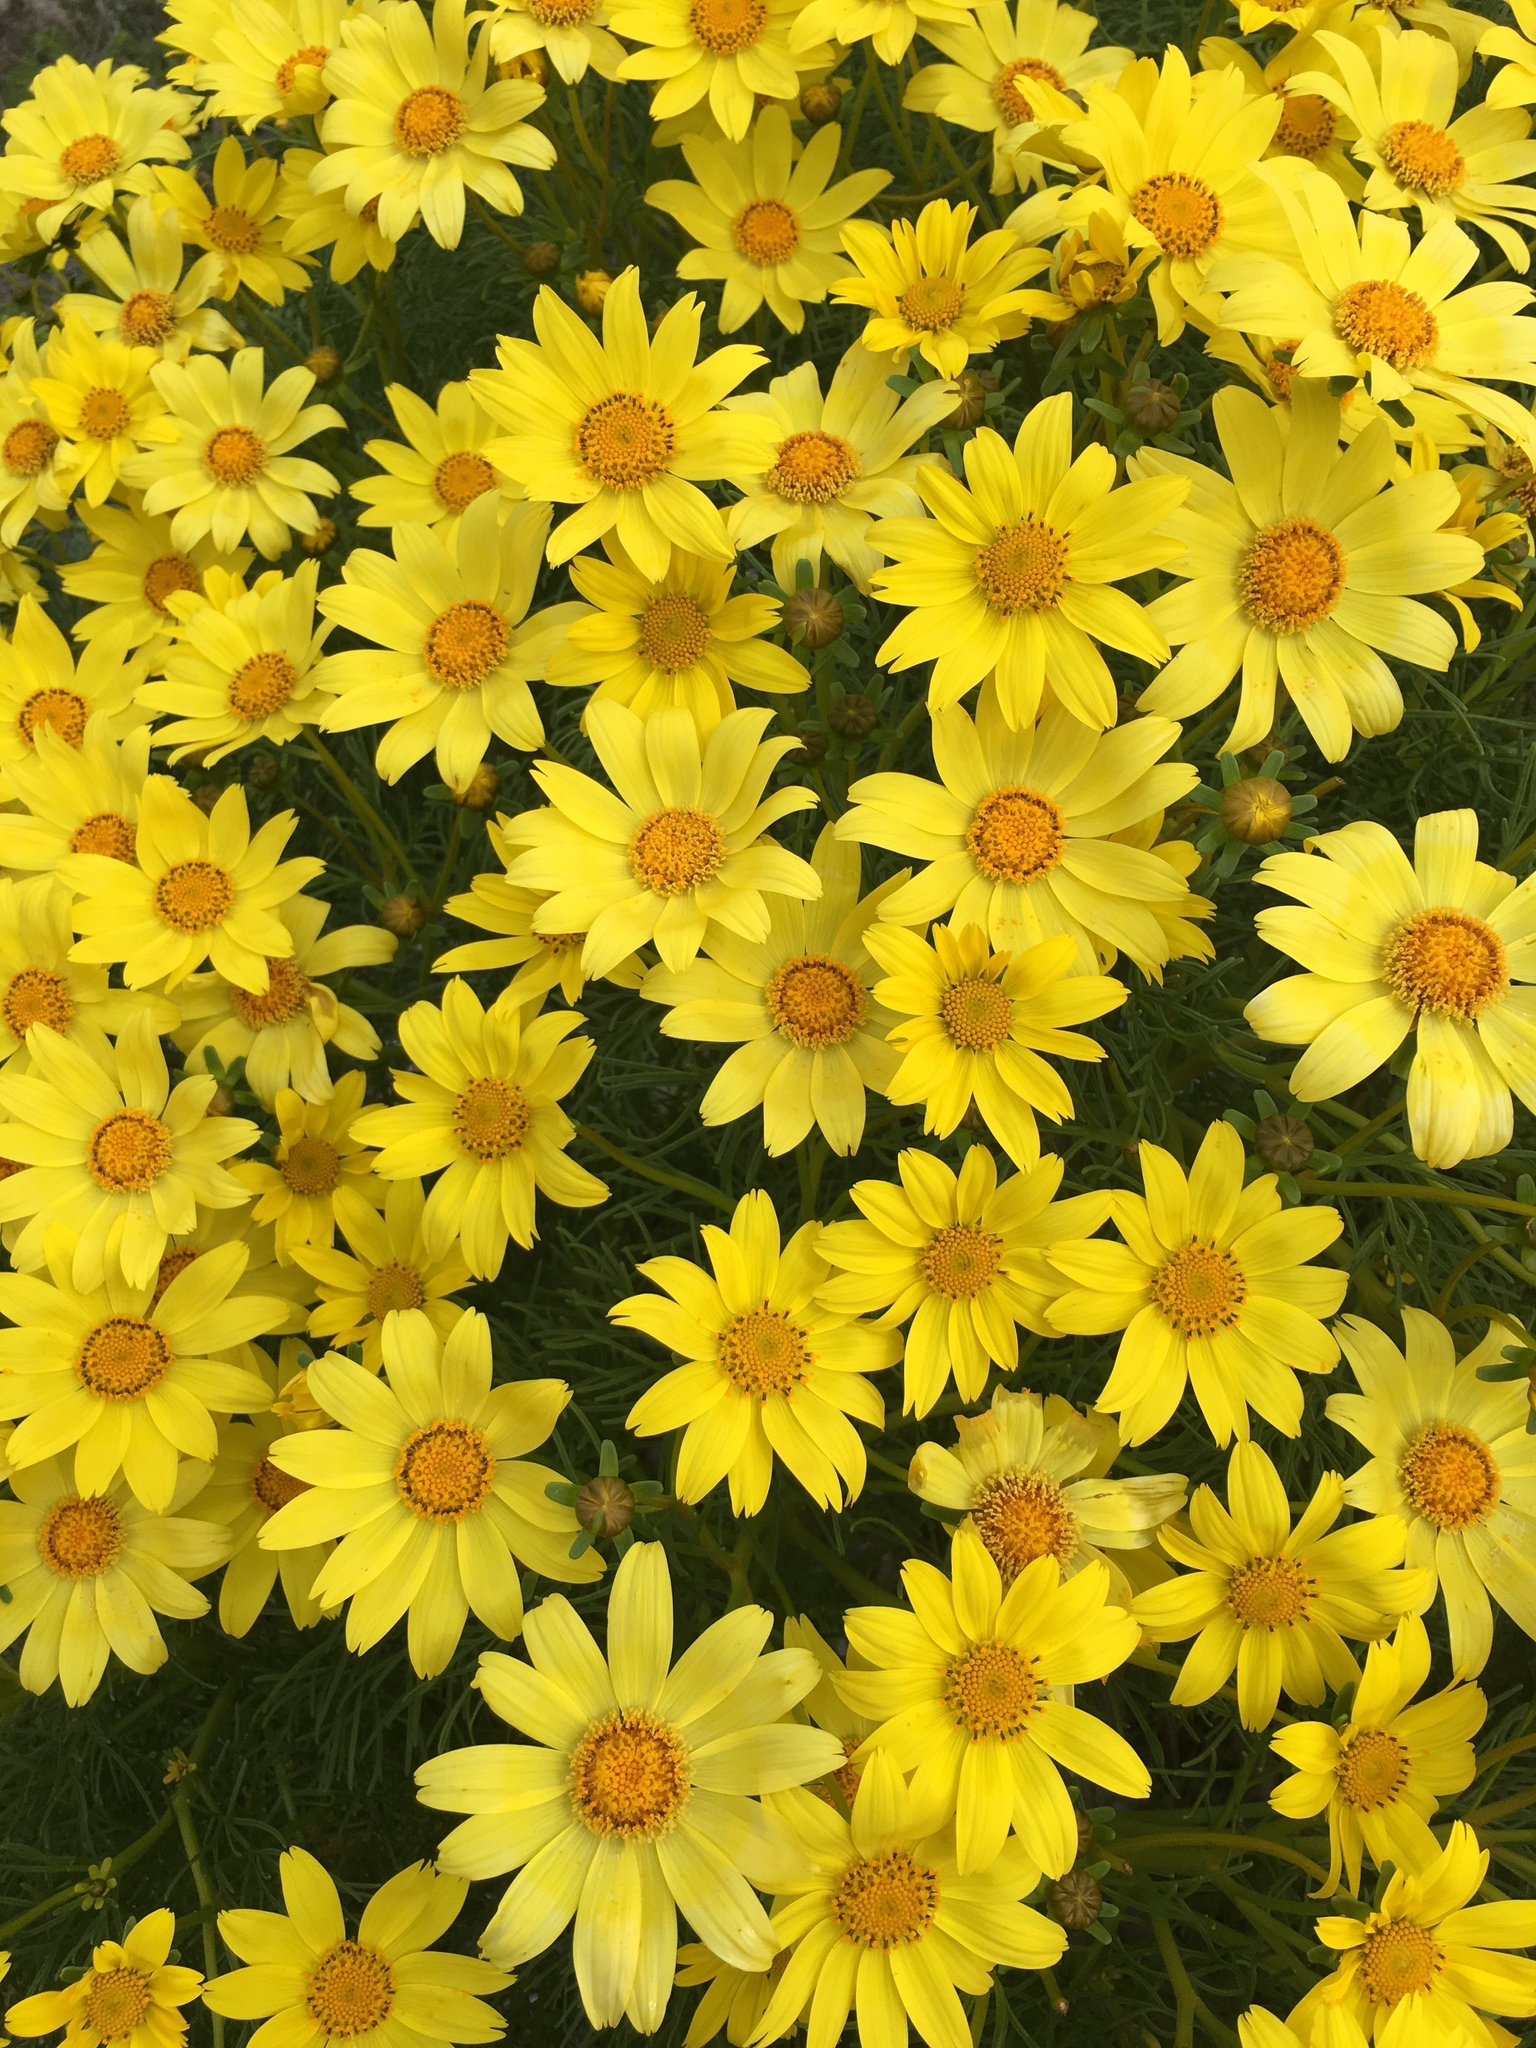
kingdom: Plantae
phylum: Tracheophyta
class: Magnoliopsida
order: Asterales
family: Asteraceae
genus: Coreopsis
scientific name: Coreopsis gigantea
